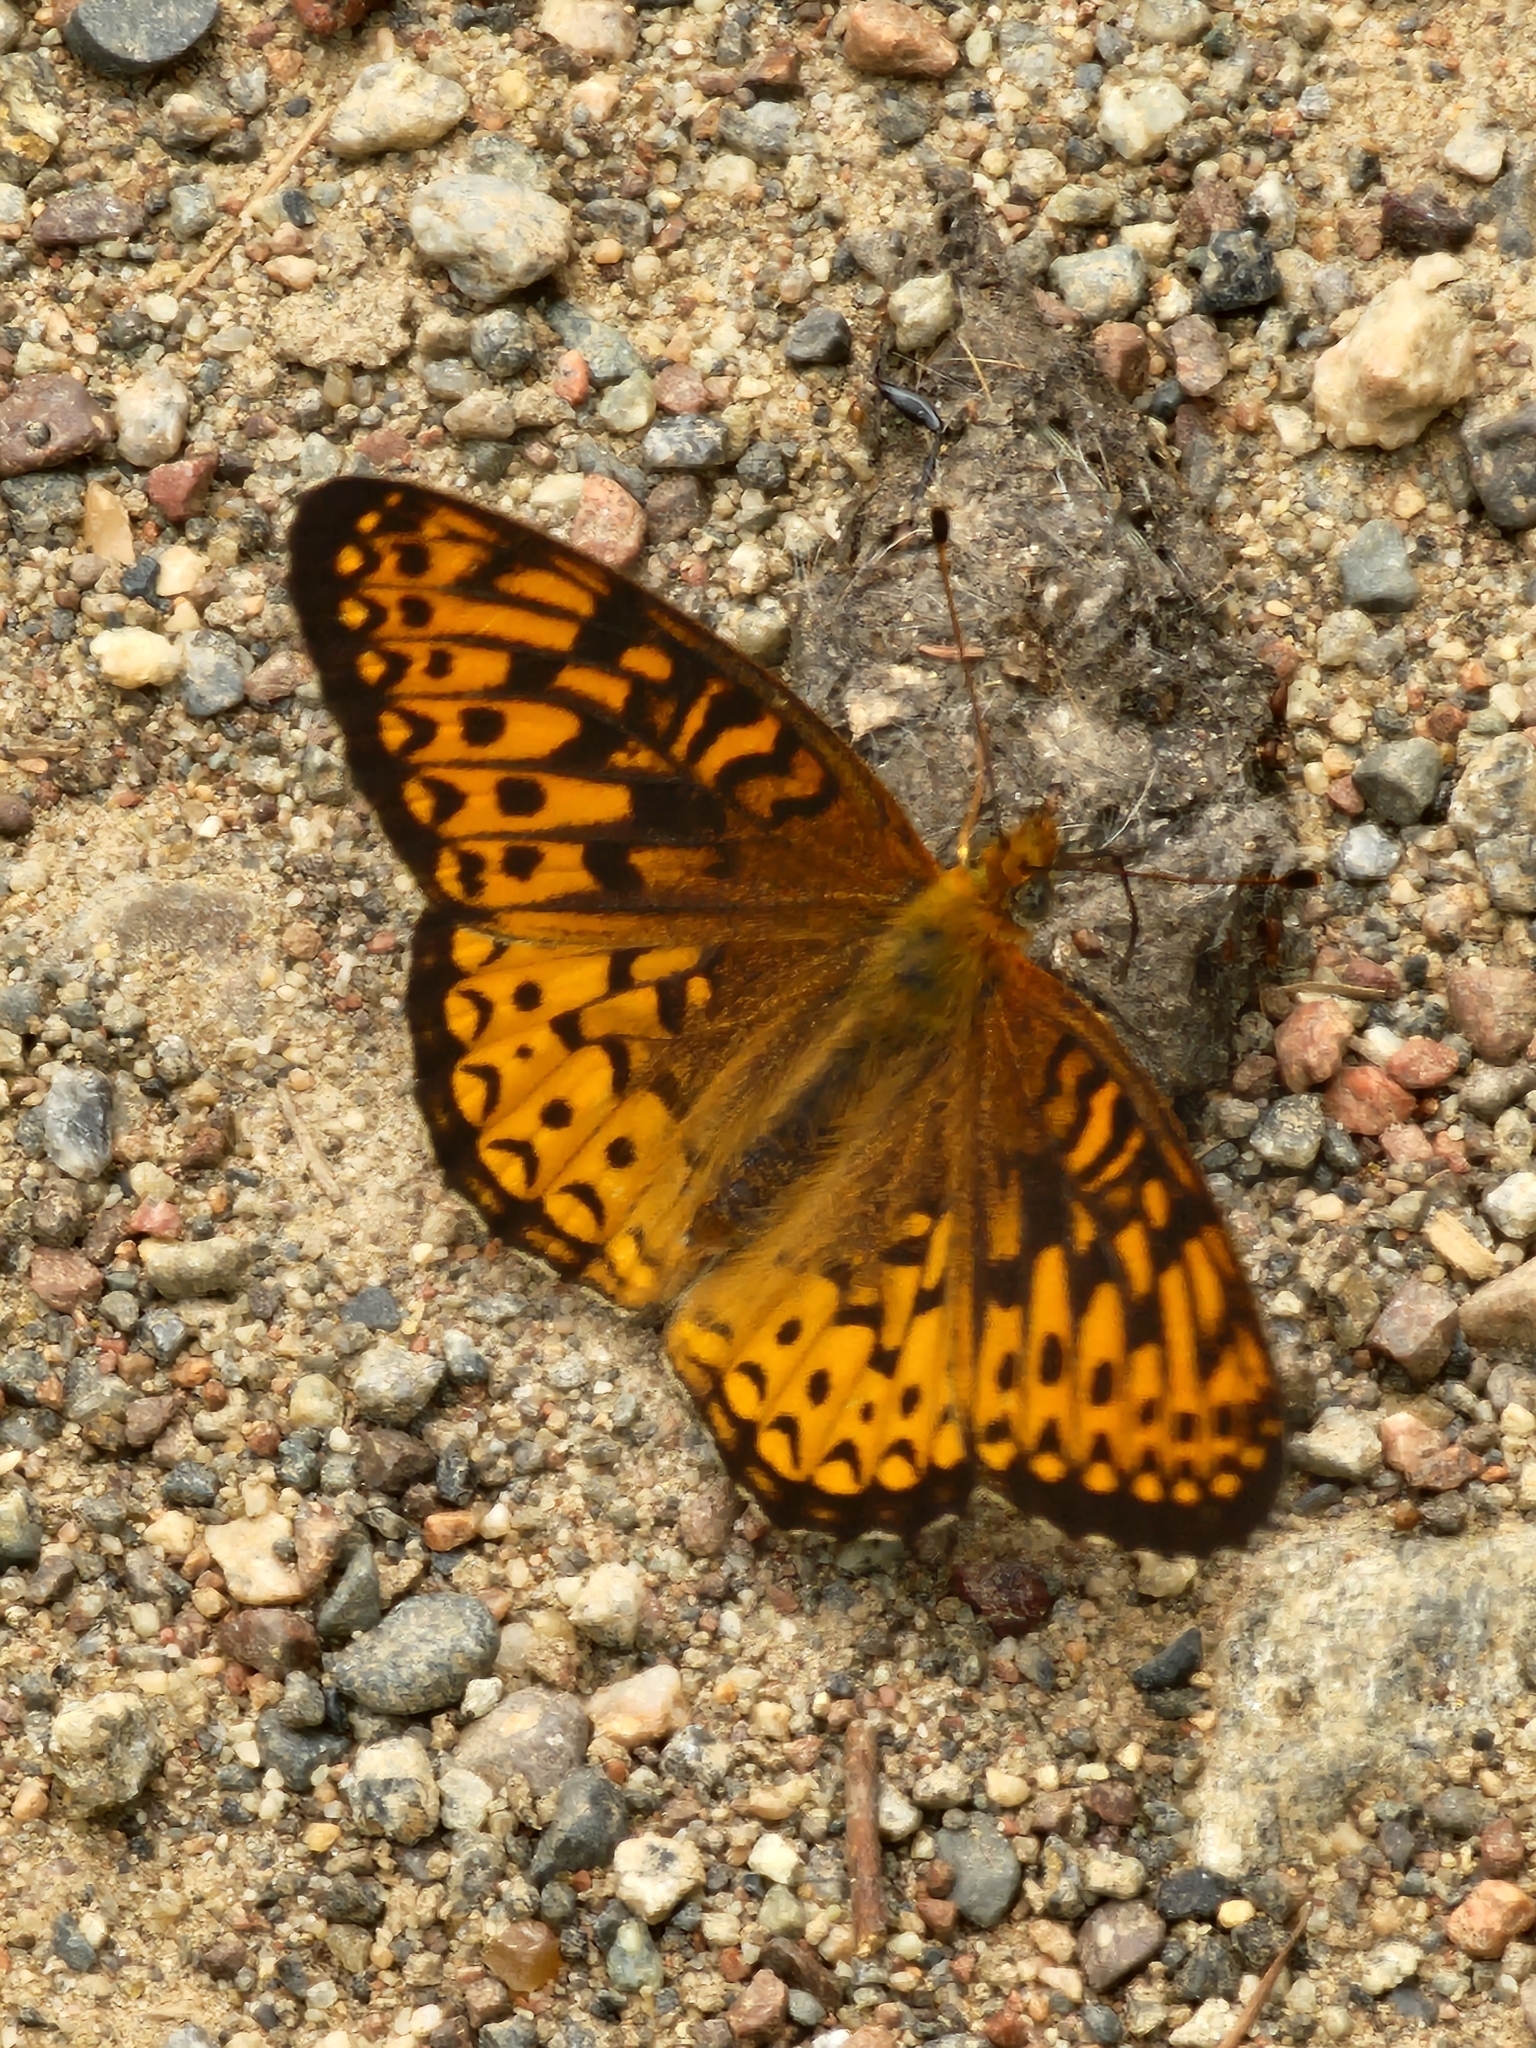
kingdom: Animalia
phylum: Arthropoda
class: Insecta
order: Lepidoptera
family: Nymphalidae
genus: Speyeria
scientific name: Speyeria atlantis
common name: Atlantis fritillary
